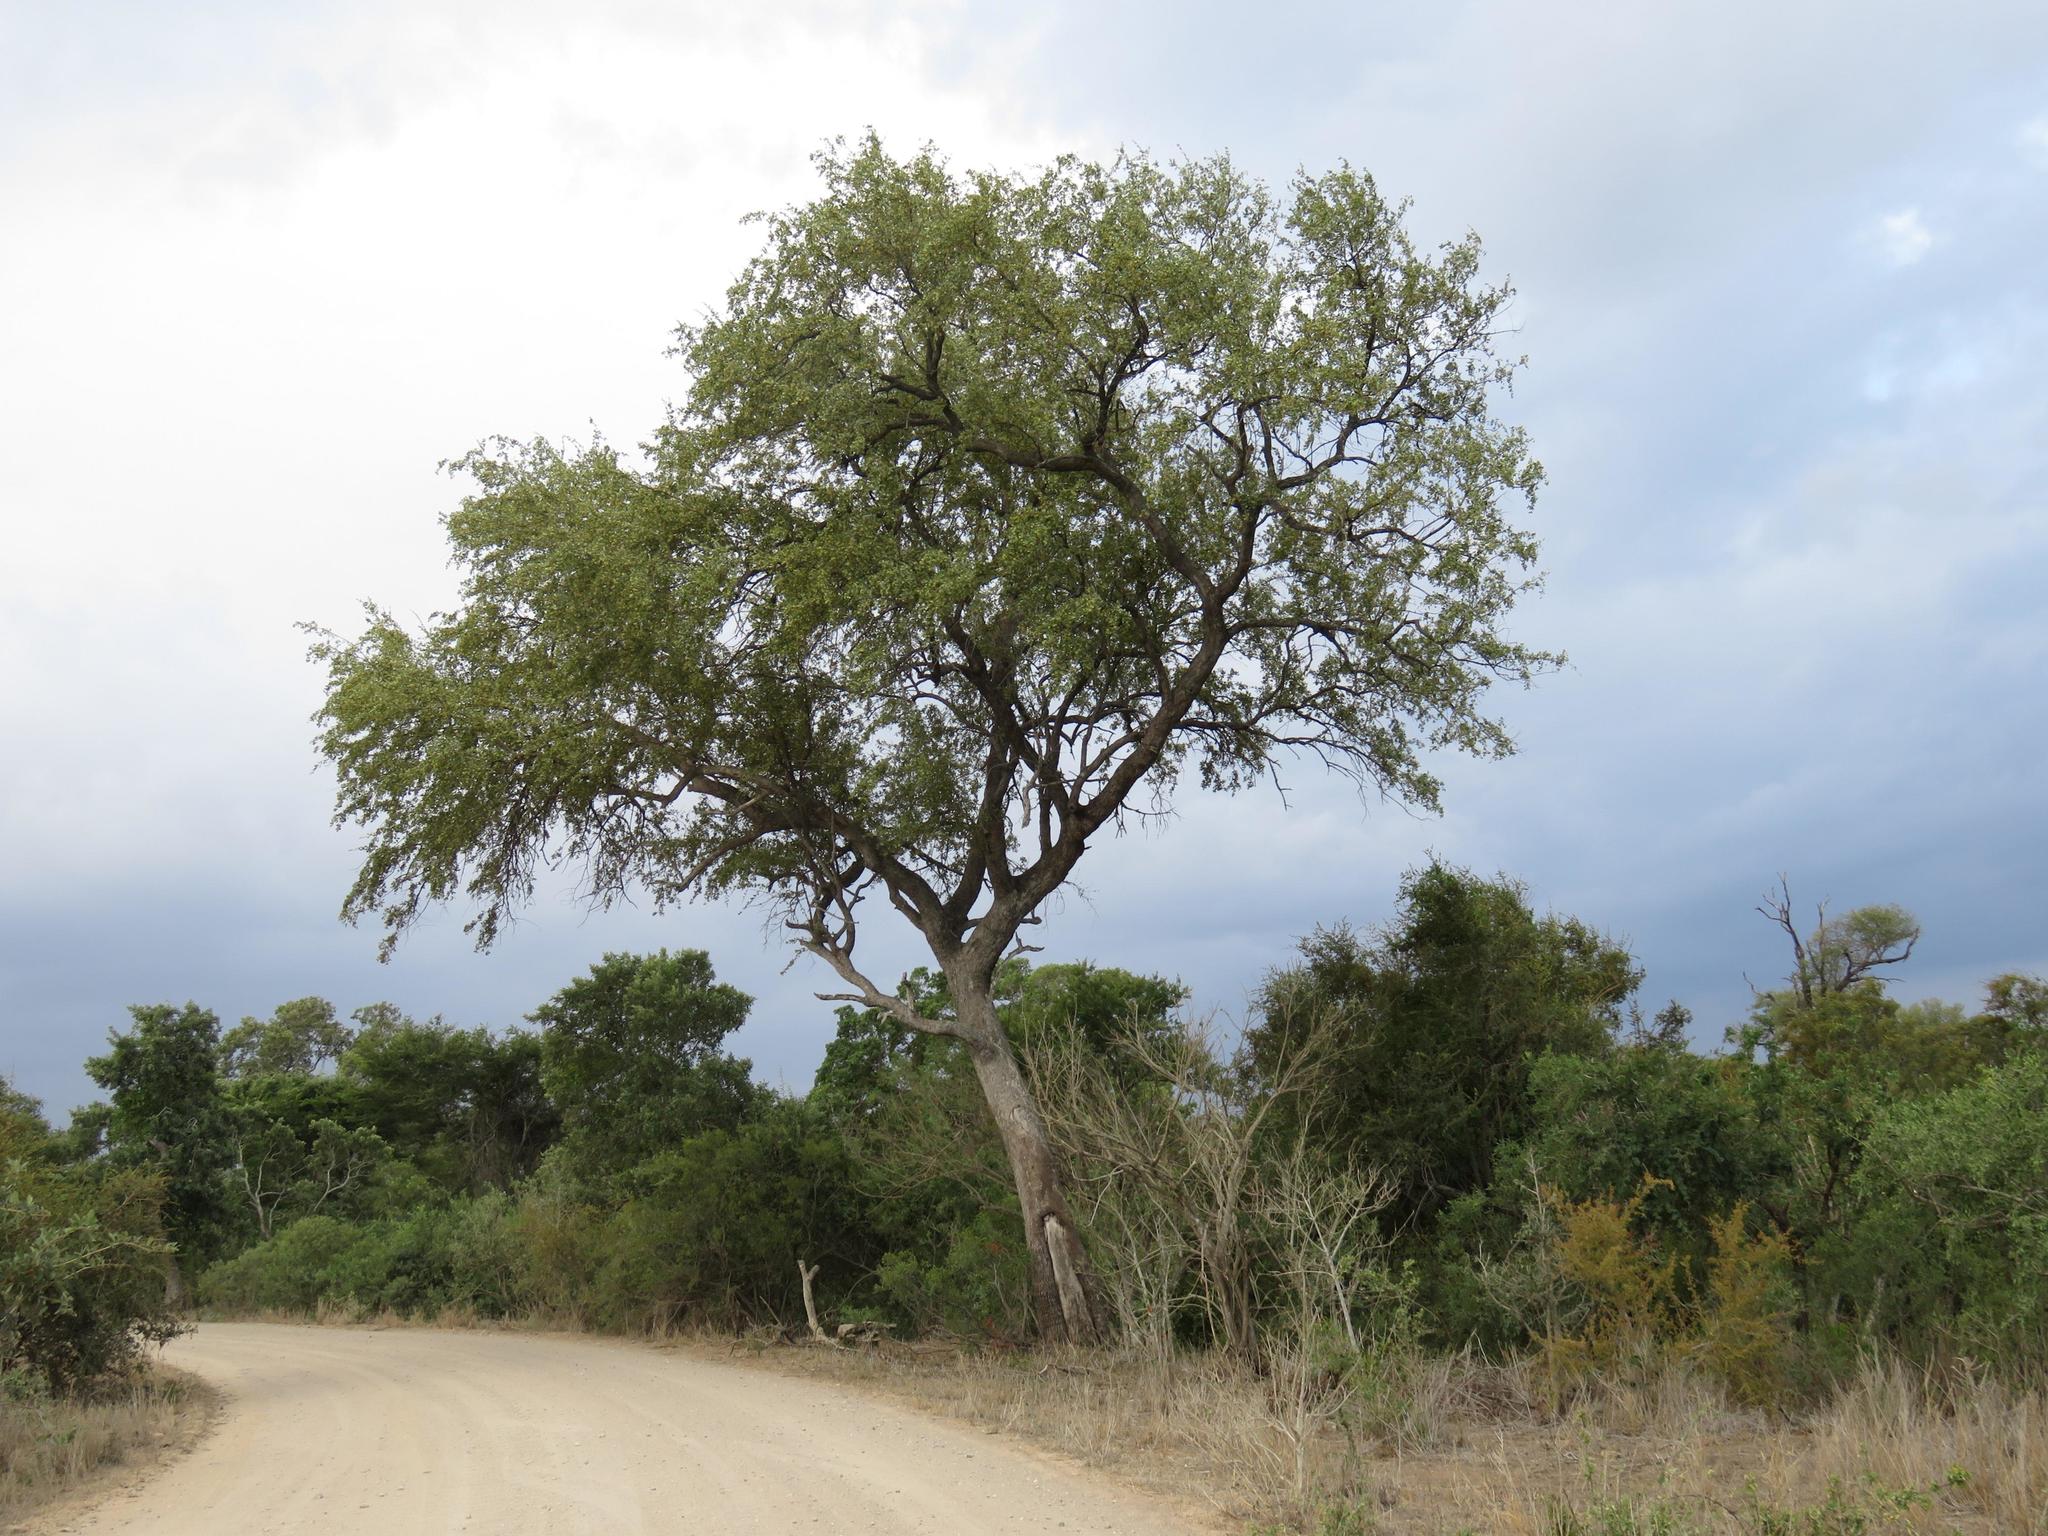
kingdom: Plantae
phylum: Tracheophyta
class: Magnoliopsida
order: Myrtales
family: Combretaceae
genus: Combretum
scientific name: Combretum imberbe
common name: Leadwood
